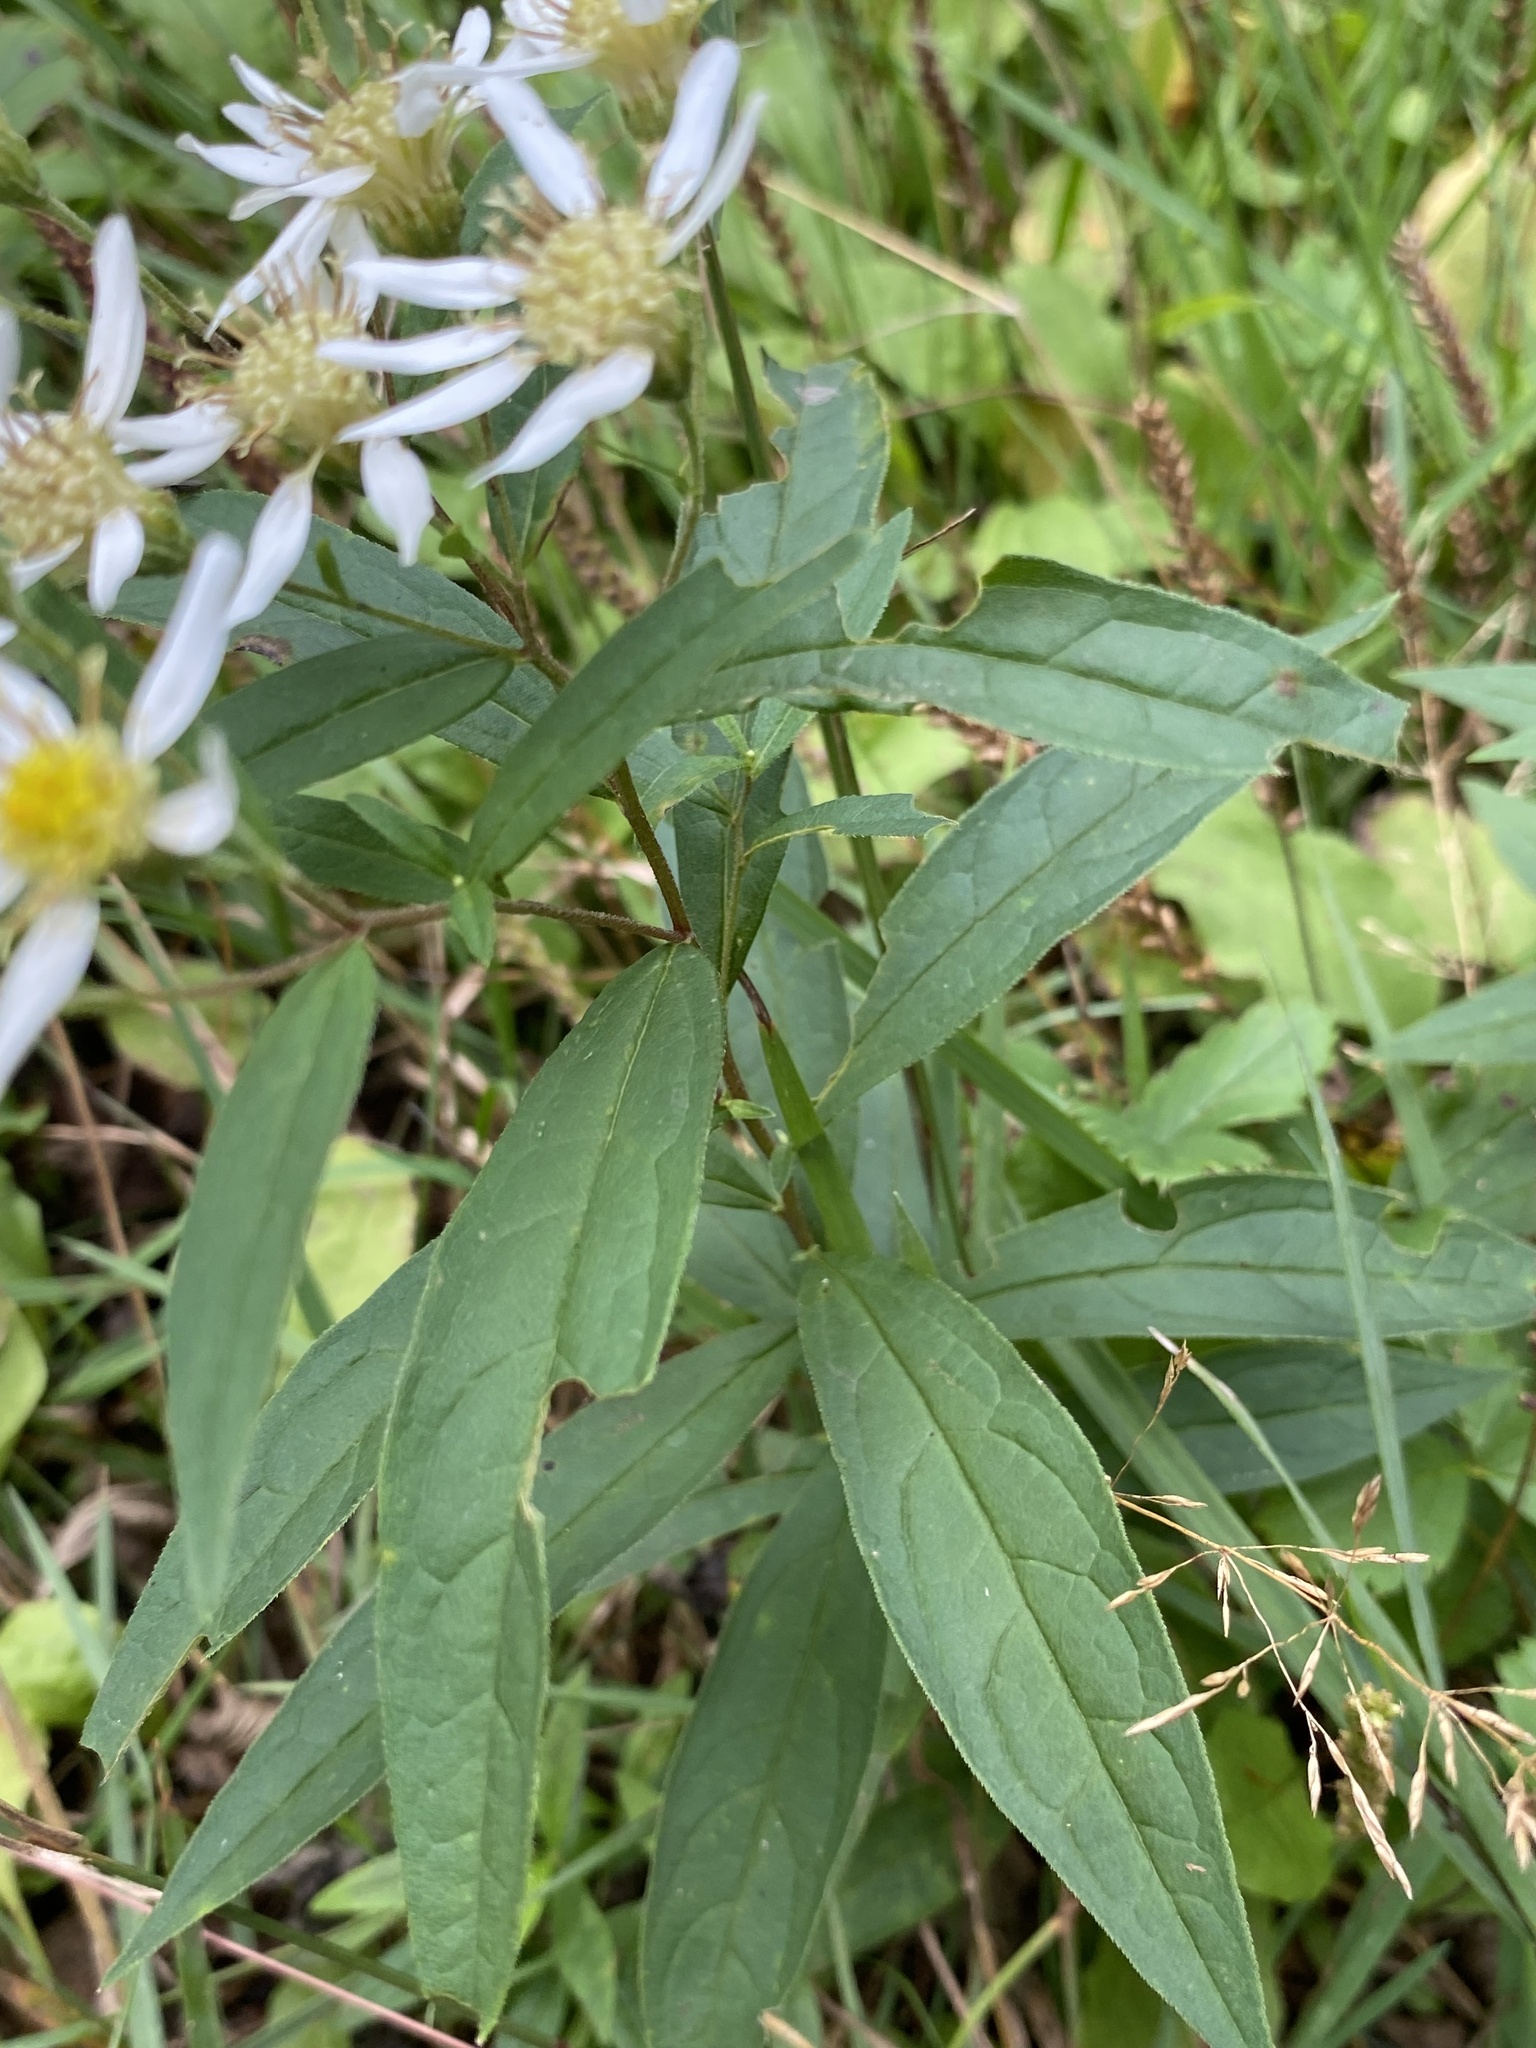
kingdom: Plantae
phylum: Tracheophyta
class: Magnoliopsida
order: Asterales
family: Asteraceae
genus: Doellingeria
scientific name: Doellingeria umbellata
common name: Flat-top white aster
